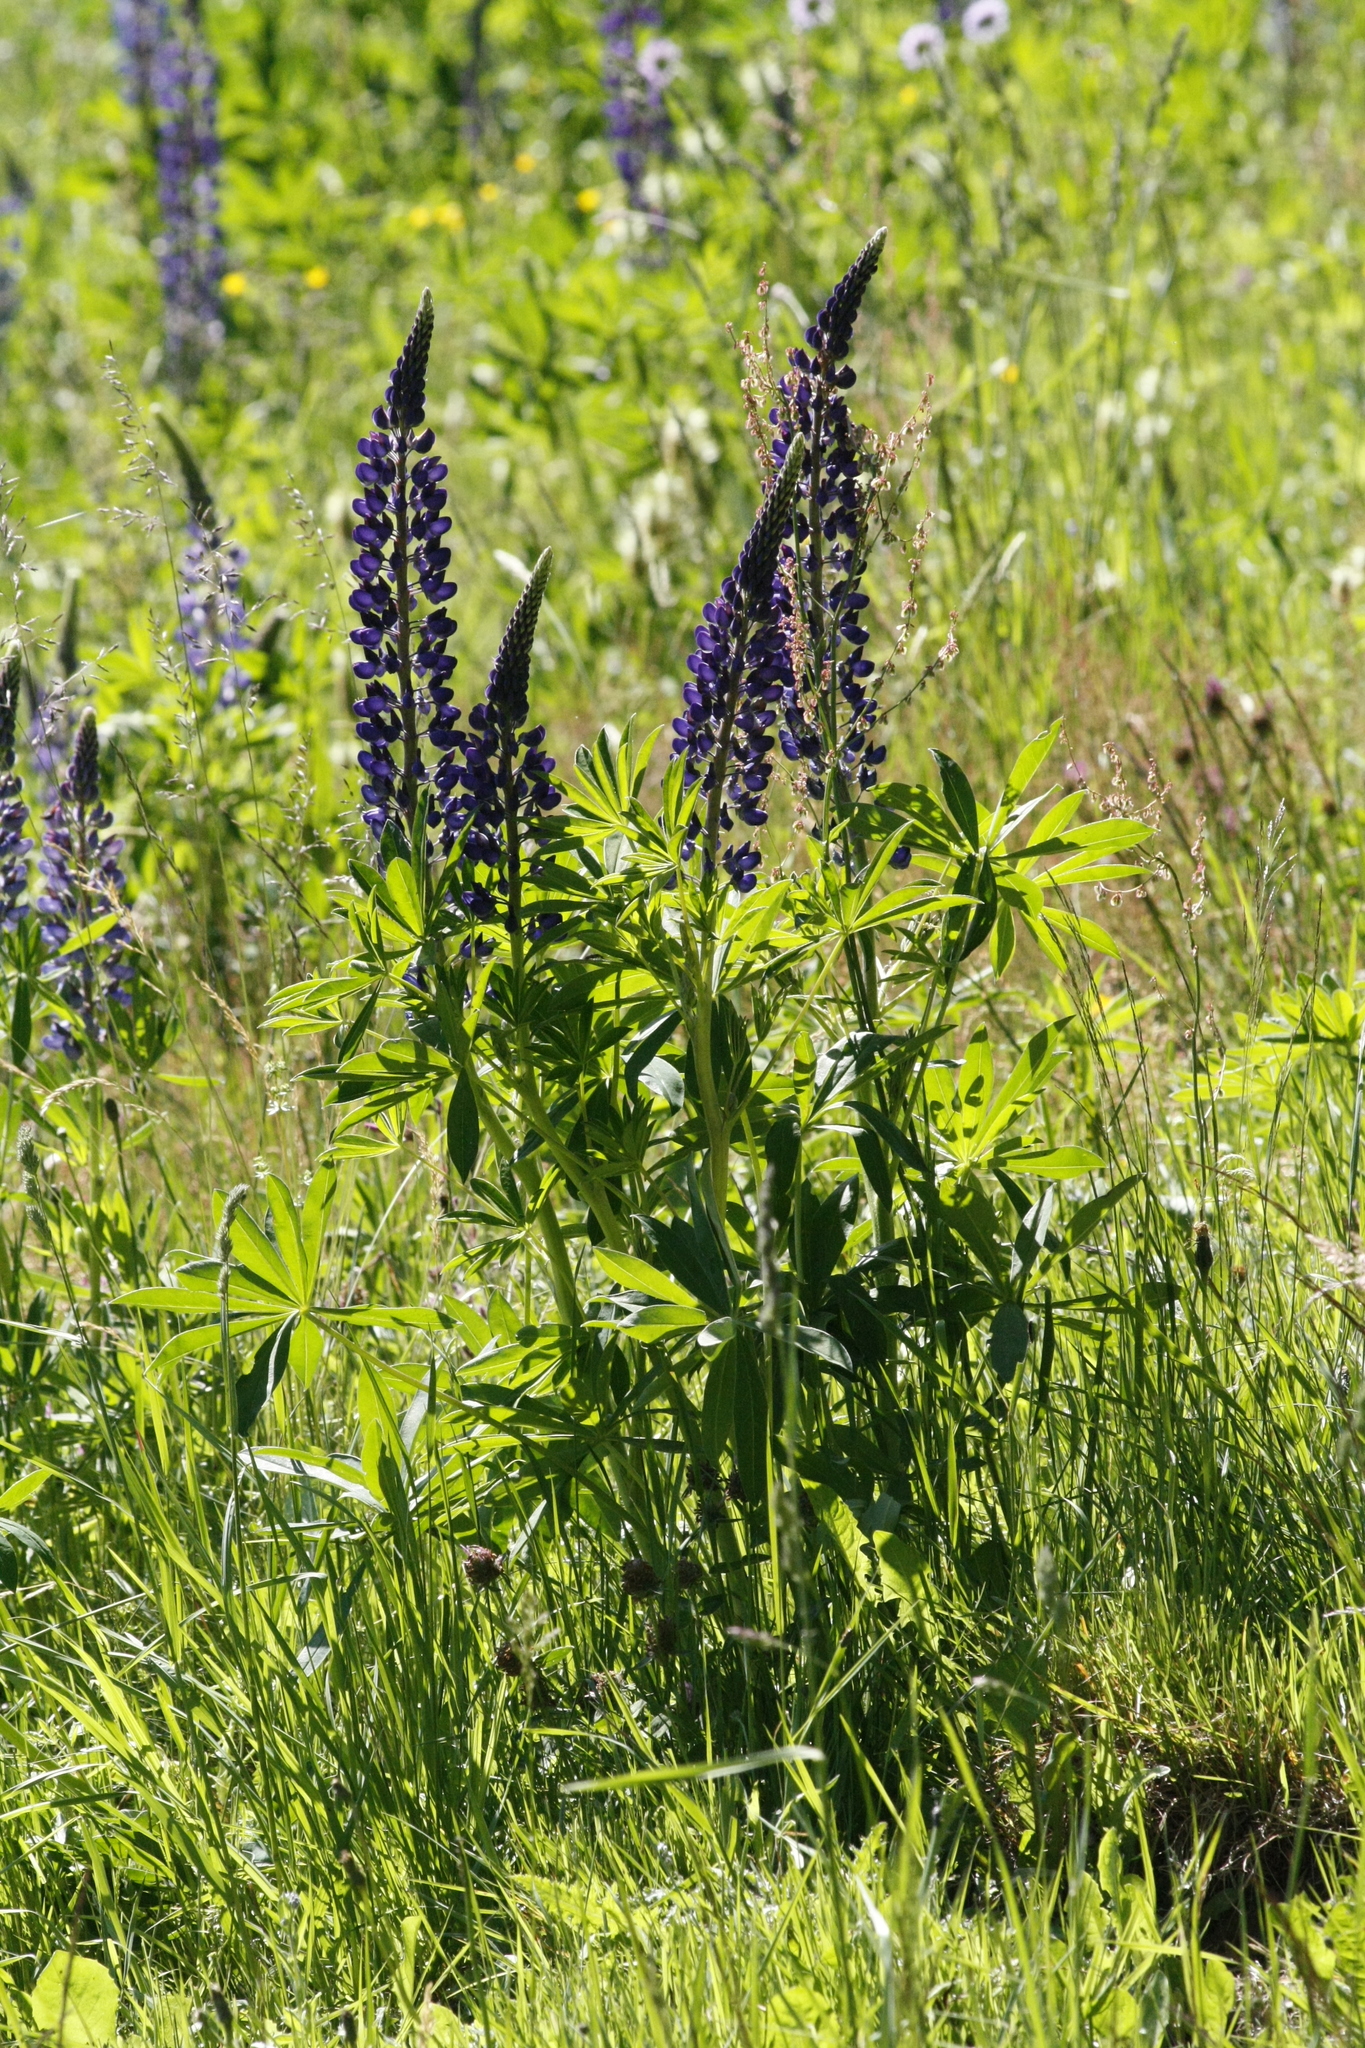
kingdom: Plantae
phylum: Tracheophyta
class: Magnoliopsida
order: Fabales
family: Fabaceae
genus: Lupinus
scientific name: Lupinus polyphyllus
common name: Garden lupin
